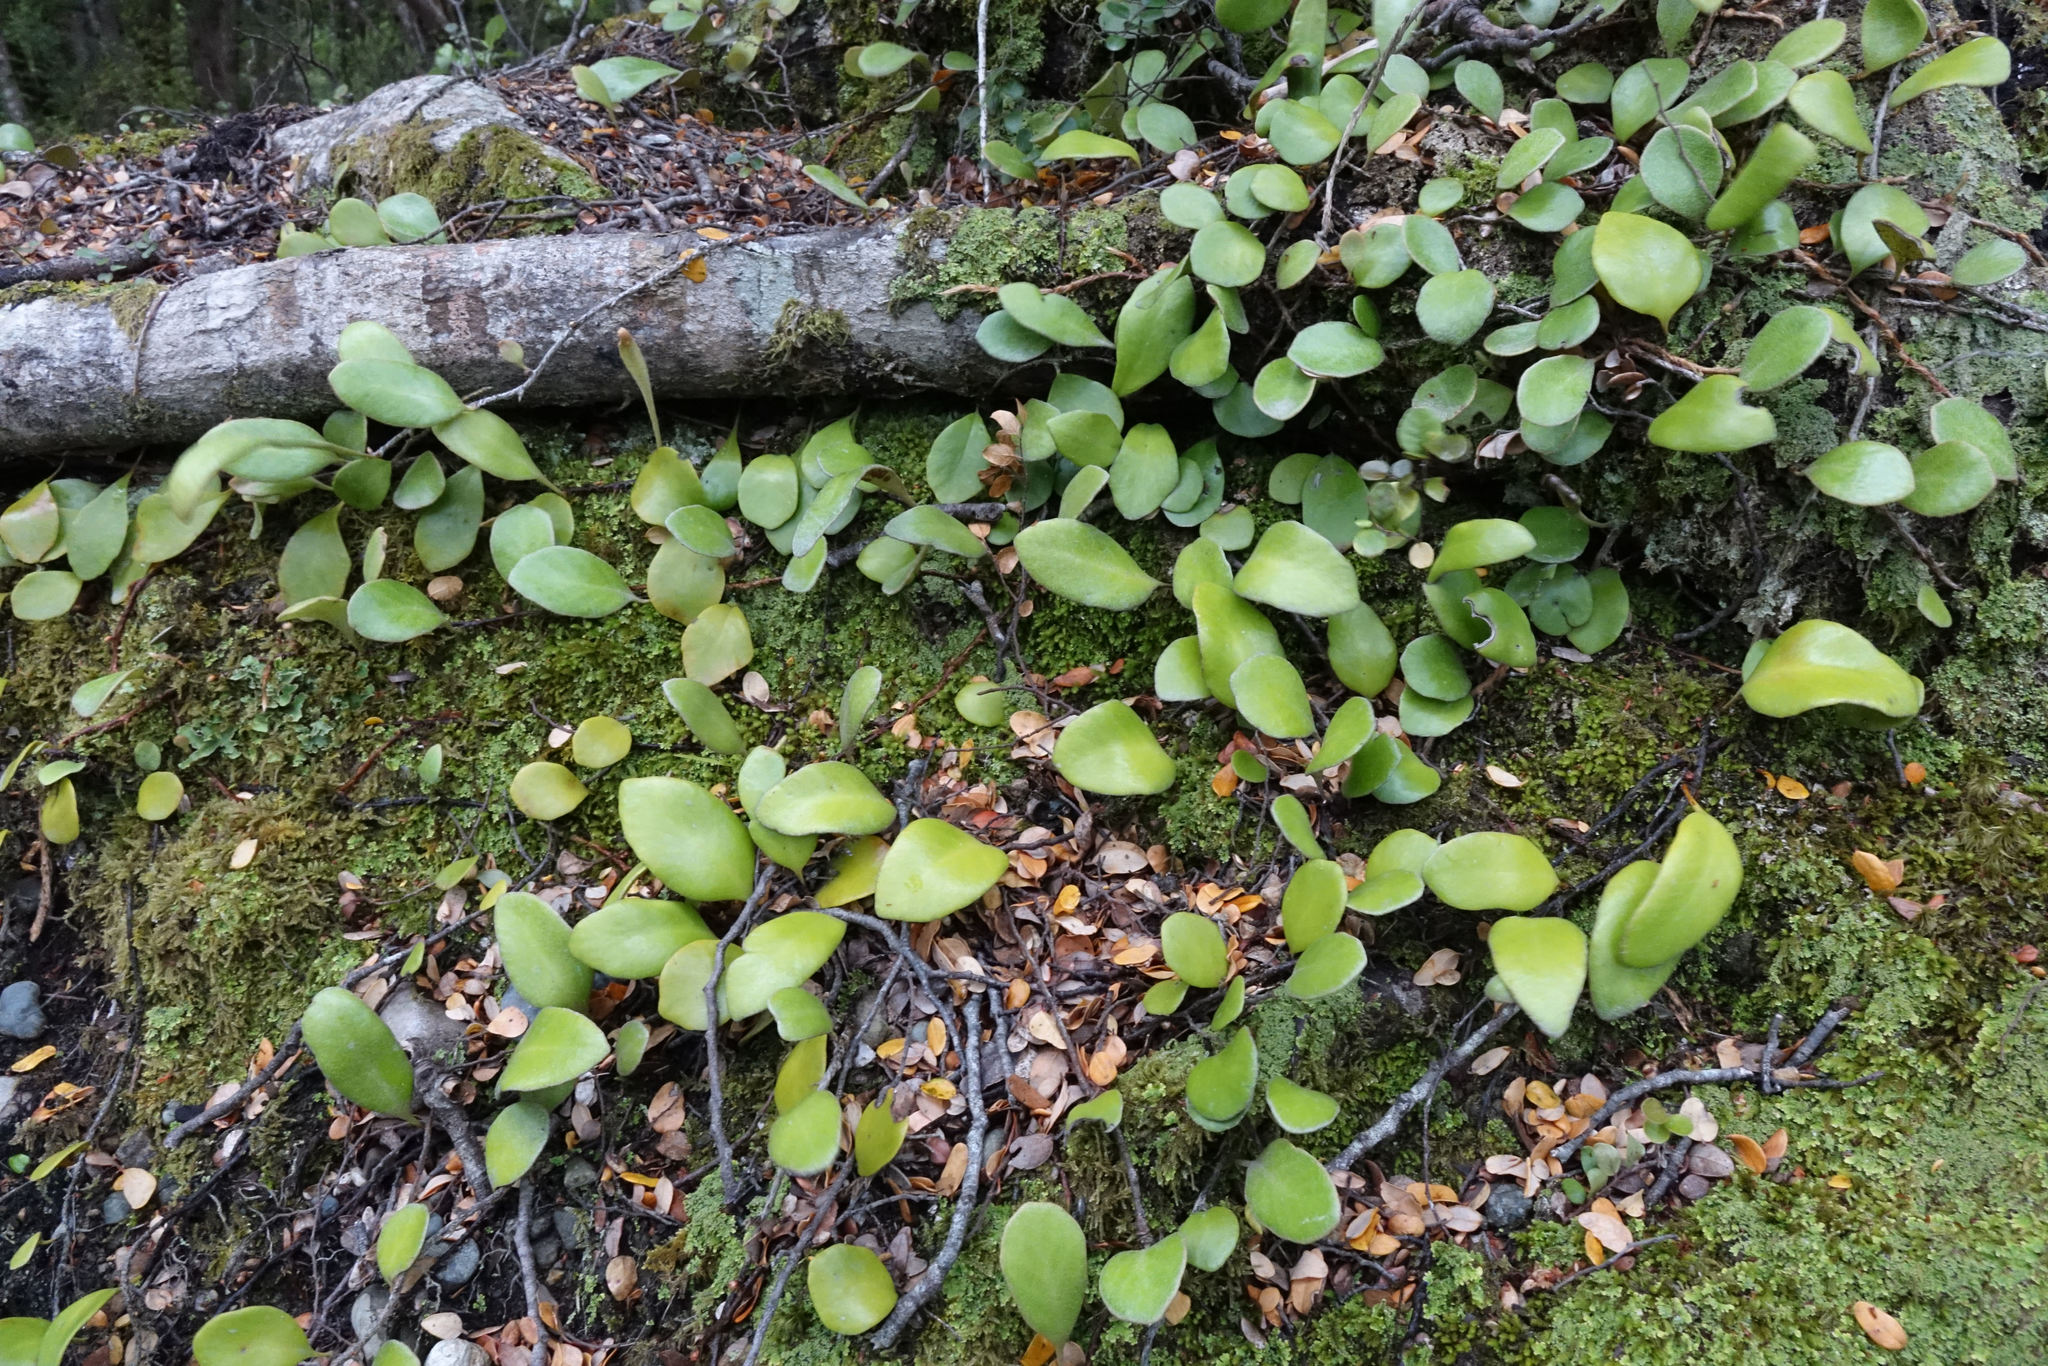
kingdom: Plantae
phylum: Tracheophyta
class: Polypodiopsida
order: Polypodiales
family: Polypodiaceae
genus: Pyrrosia
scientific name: Pyrrosia eleagnifolia
